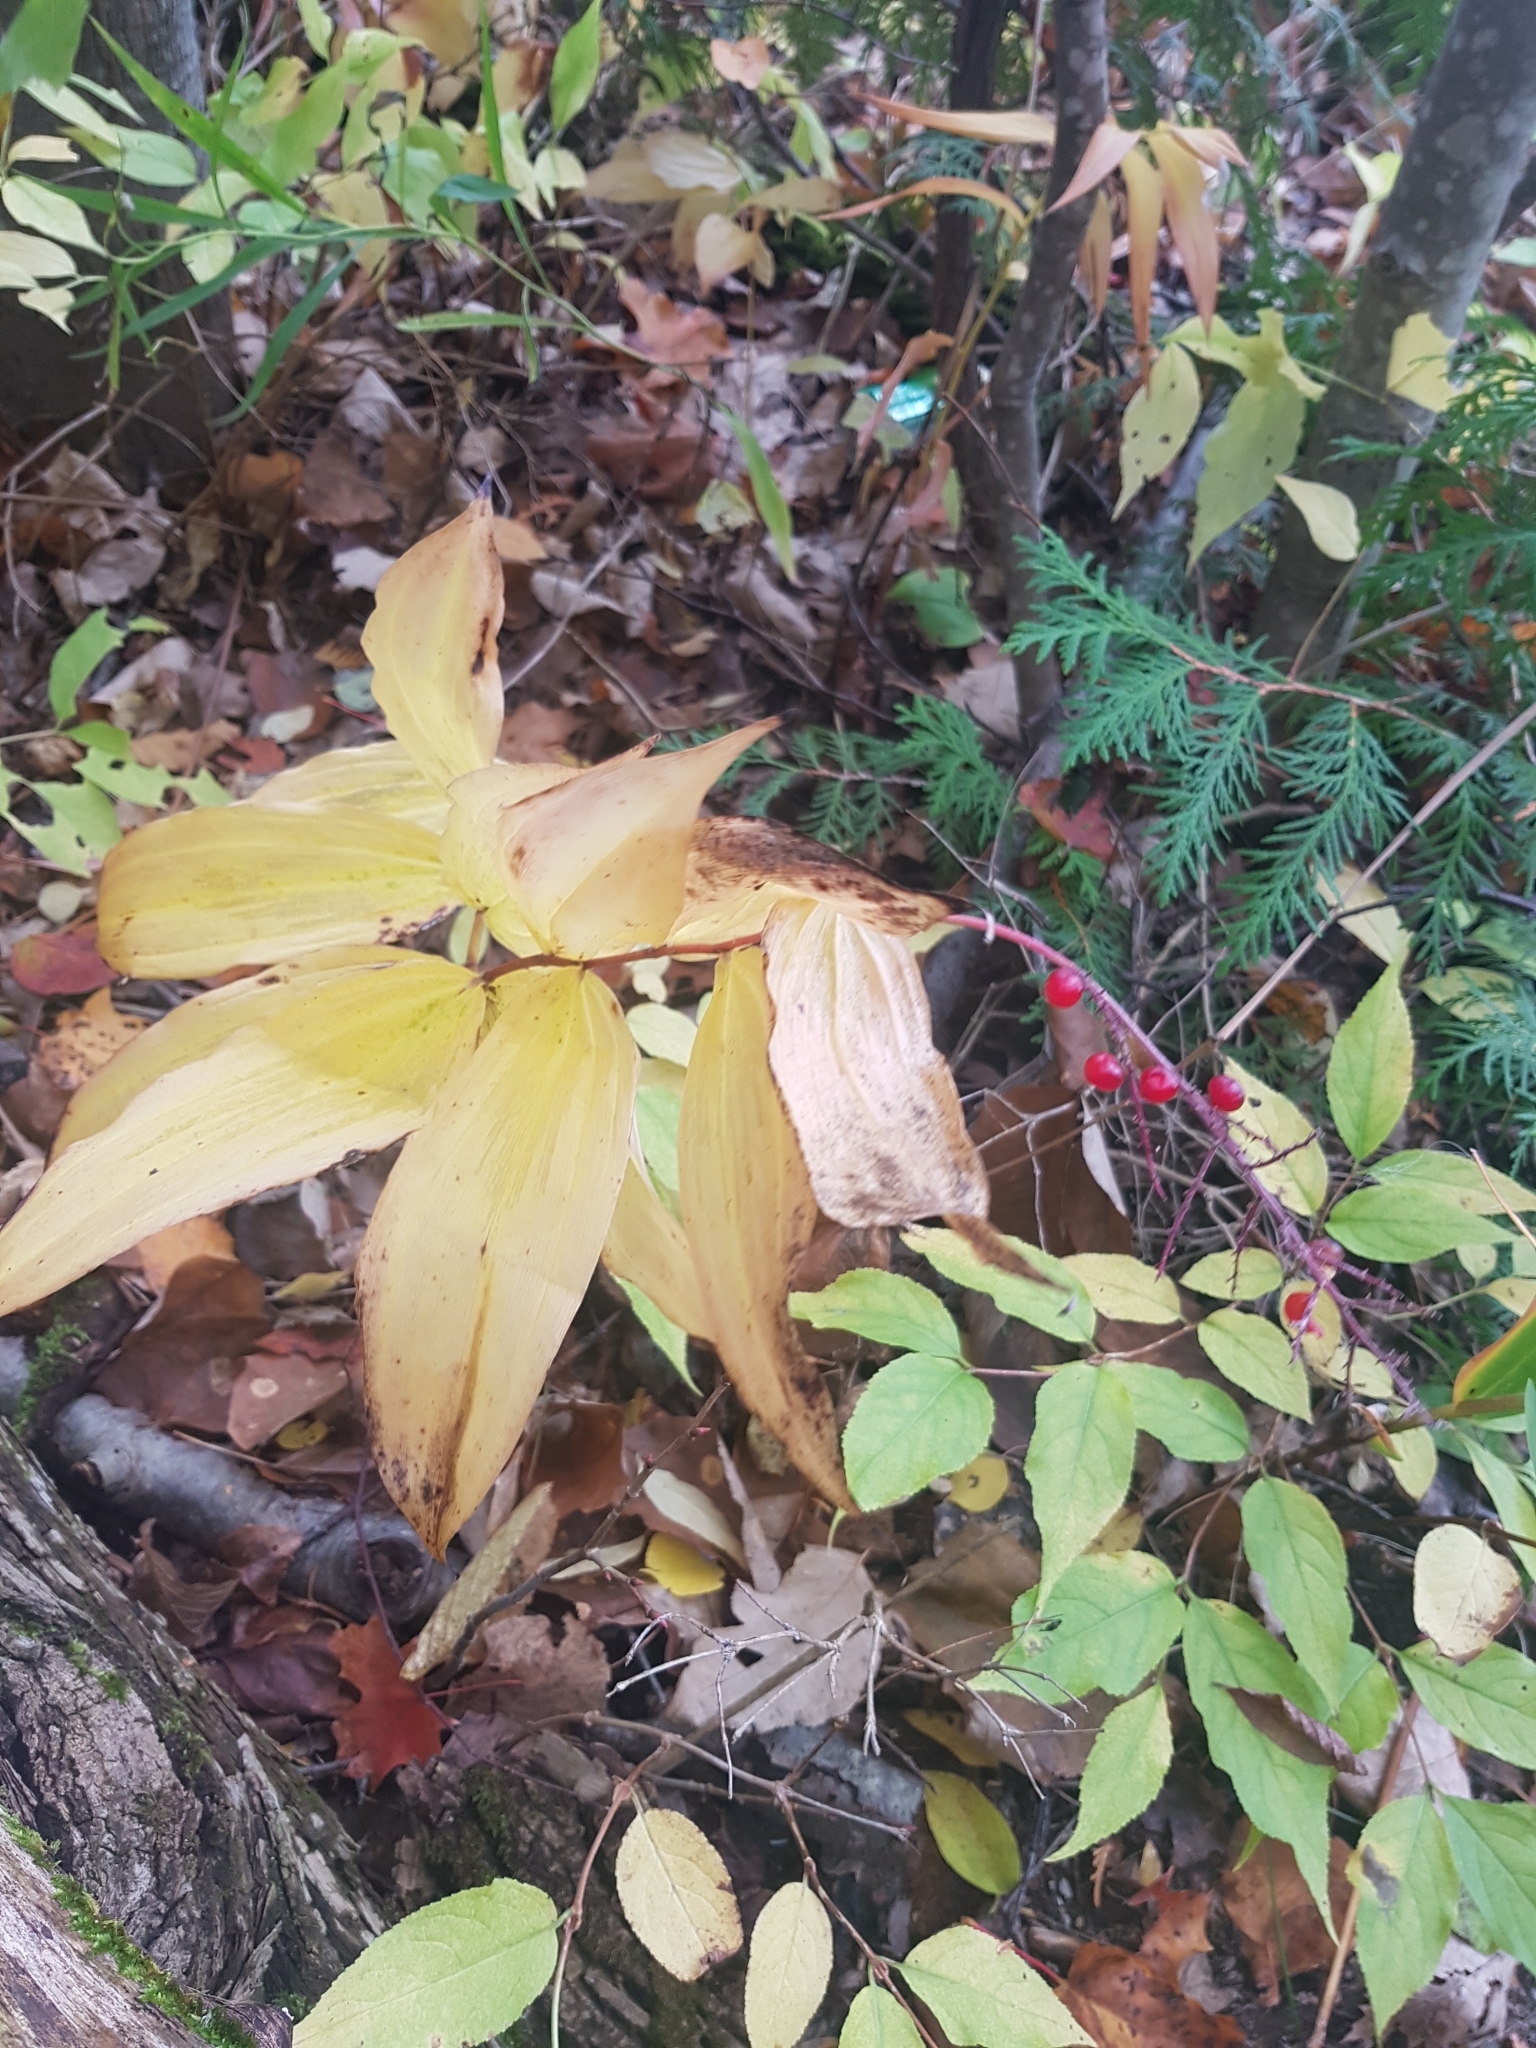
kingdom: Plantae
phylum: Tracheophyta
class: Liliopsida
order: Asparagales
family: Asparagaceae
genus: Maianthemum
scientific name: Maianthemum racemosum
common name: False spikenard
